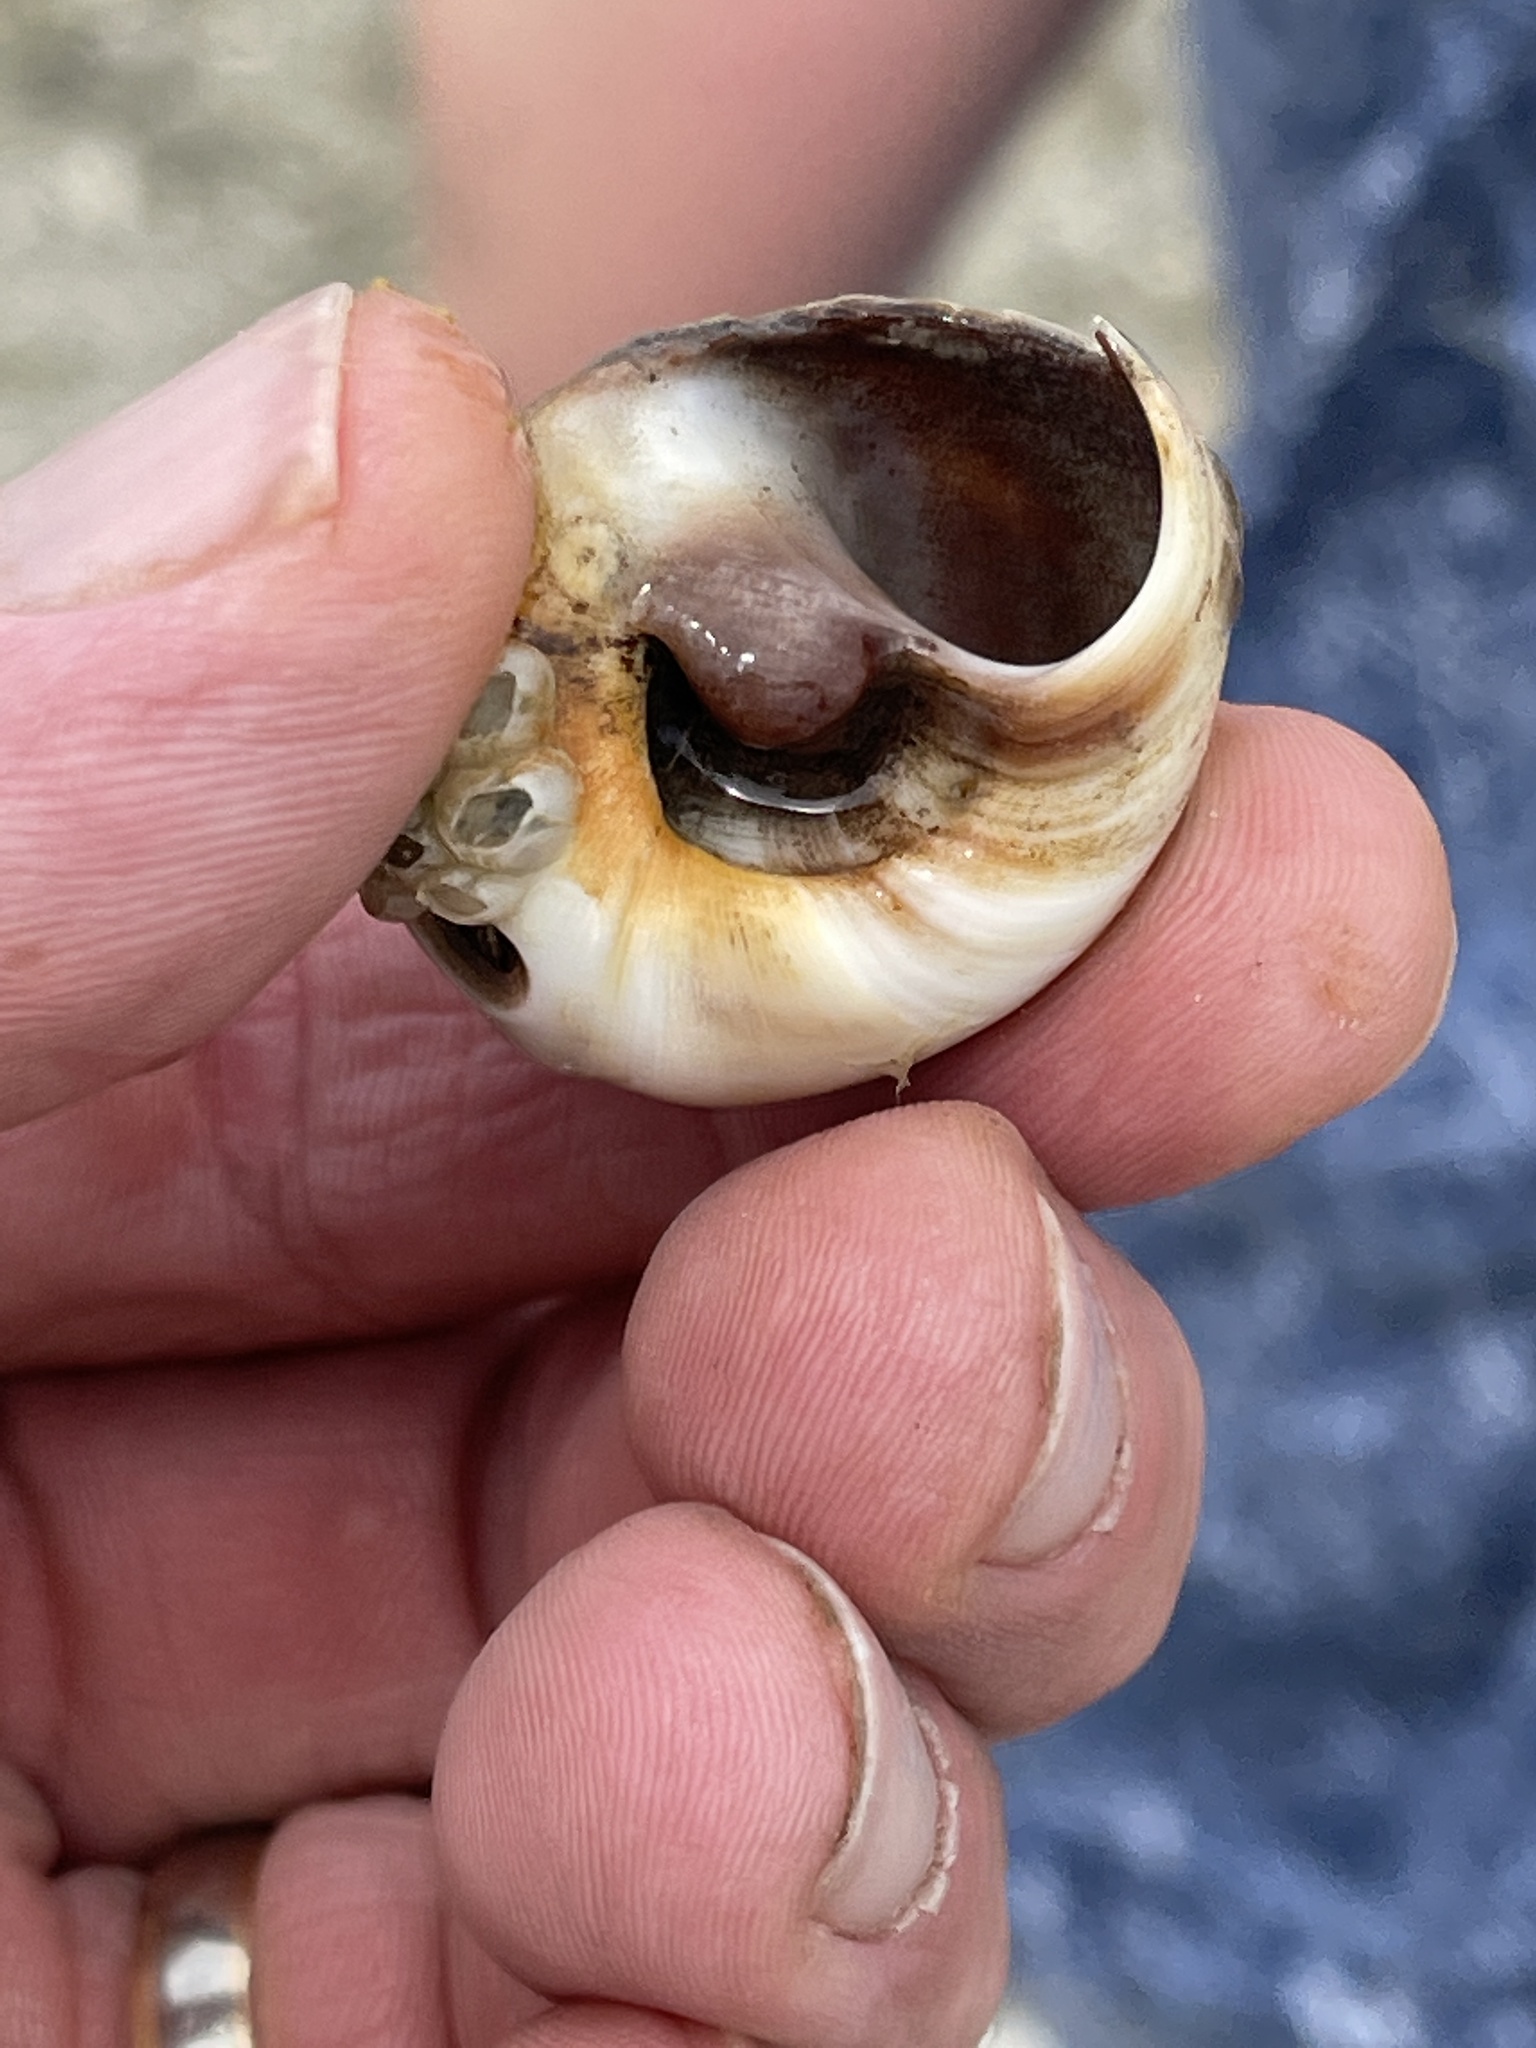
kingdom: Animalia
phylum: Mollusca
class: Gastropoda
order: Littorinimorpha
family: Naticidae
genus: Neverita
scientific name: Neverita delessertiana
